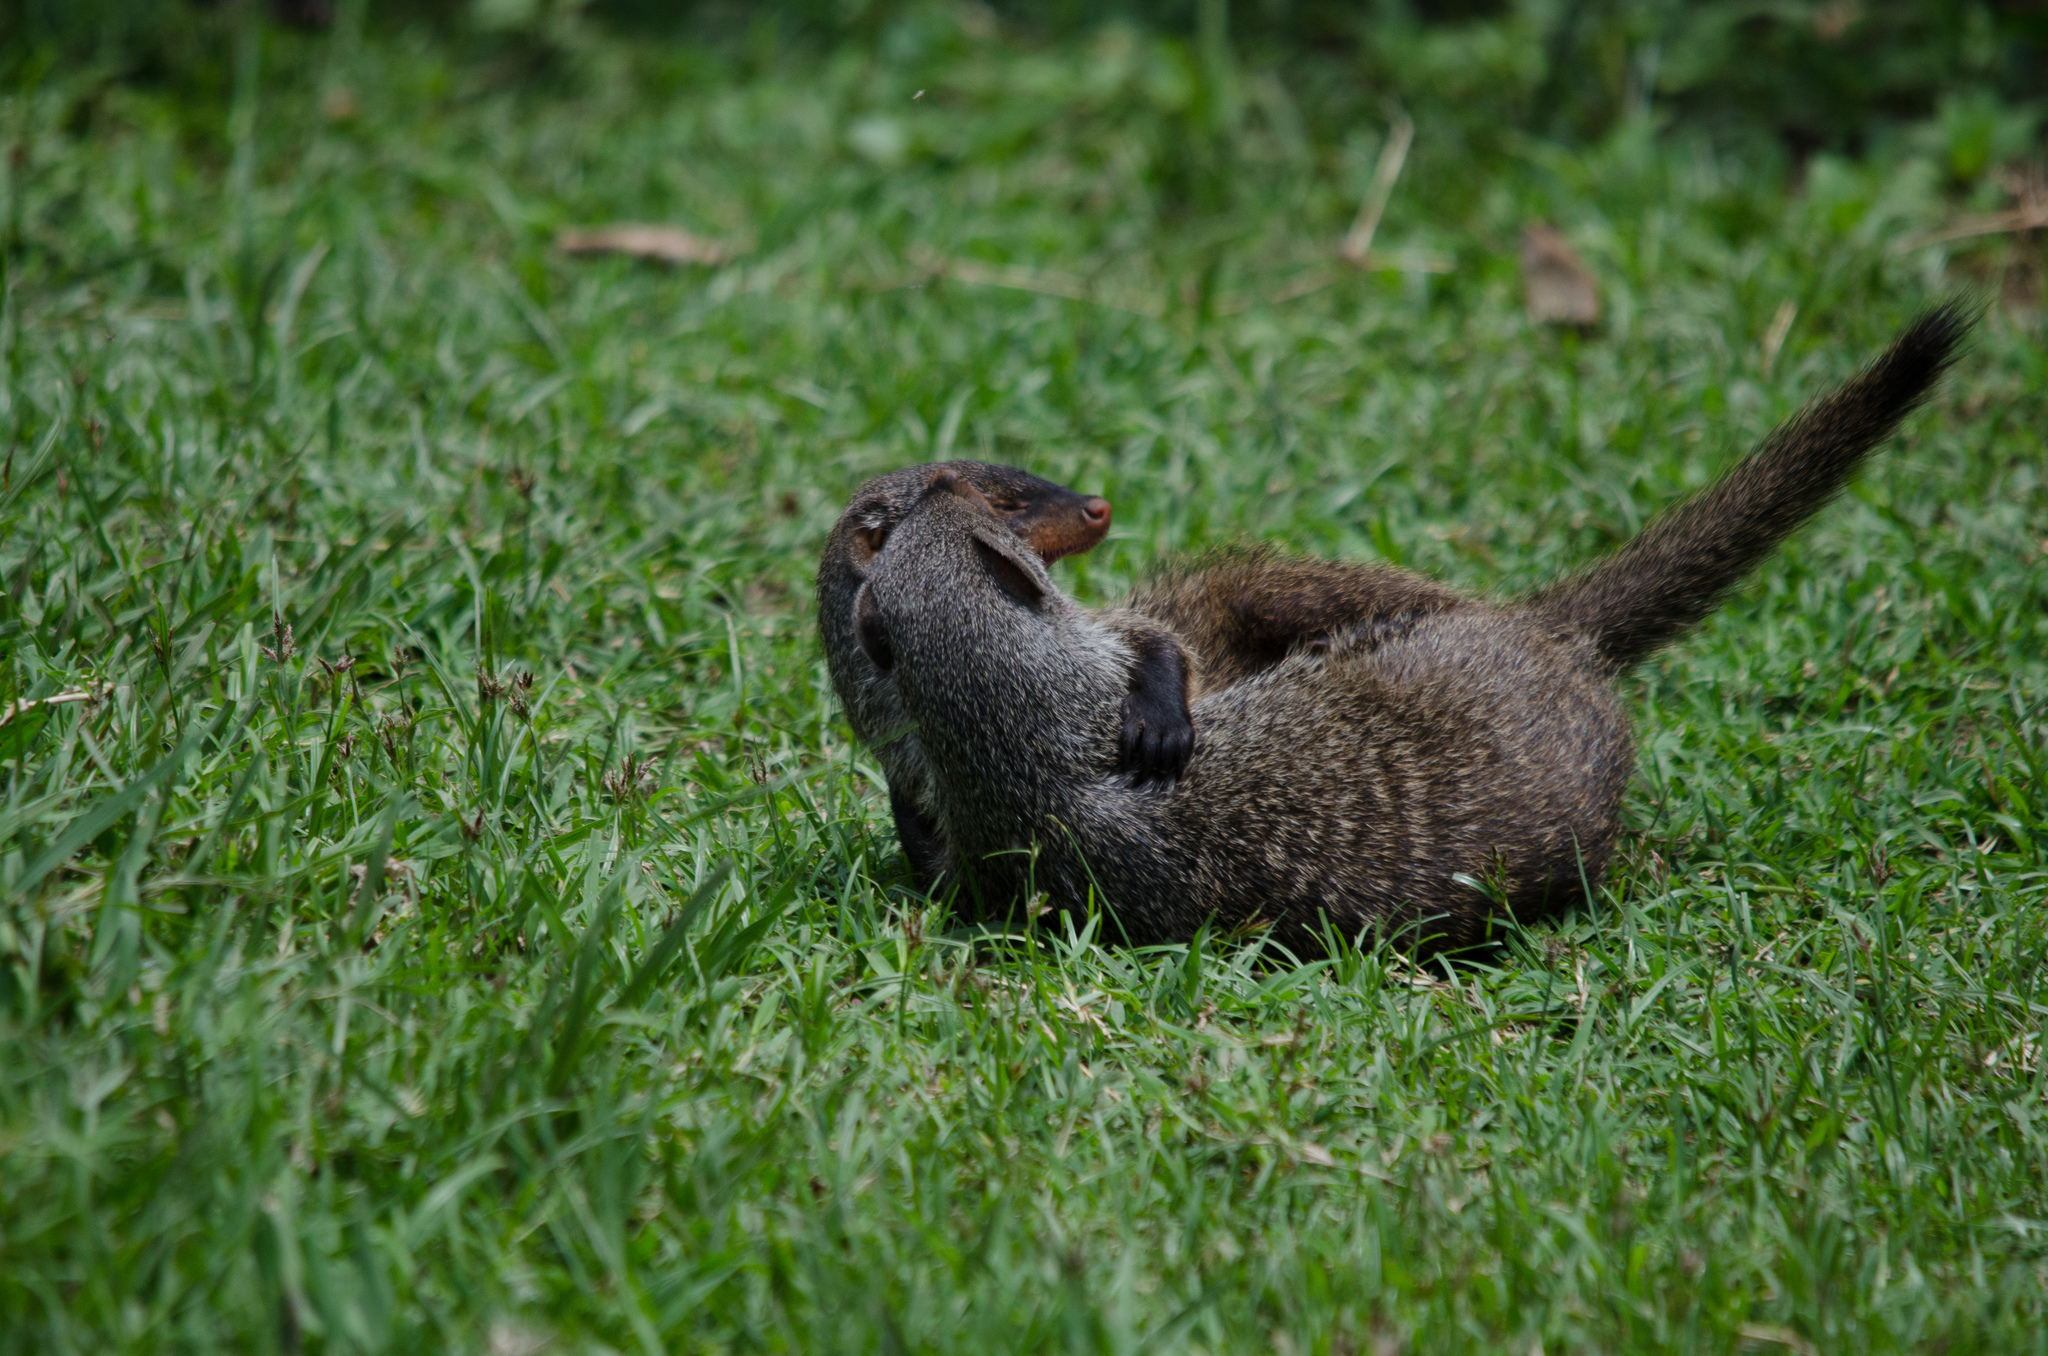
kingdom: Animalia
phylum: Chordata
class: Mammalia
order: Carnivora
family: Herpestidae
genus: Mungos
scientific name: Mungos mungo
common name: Banded mongoose
